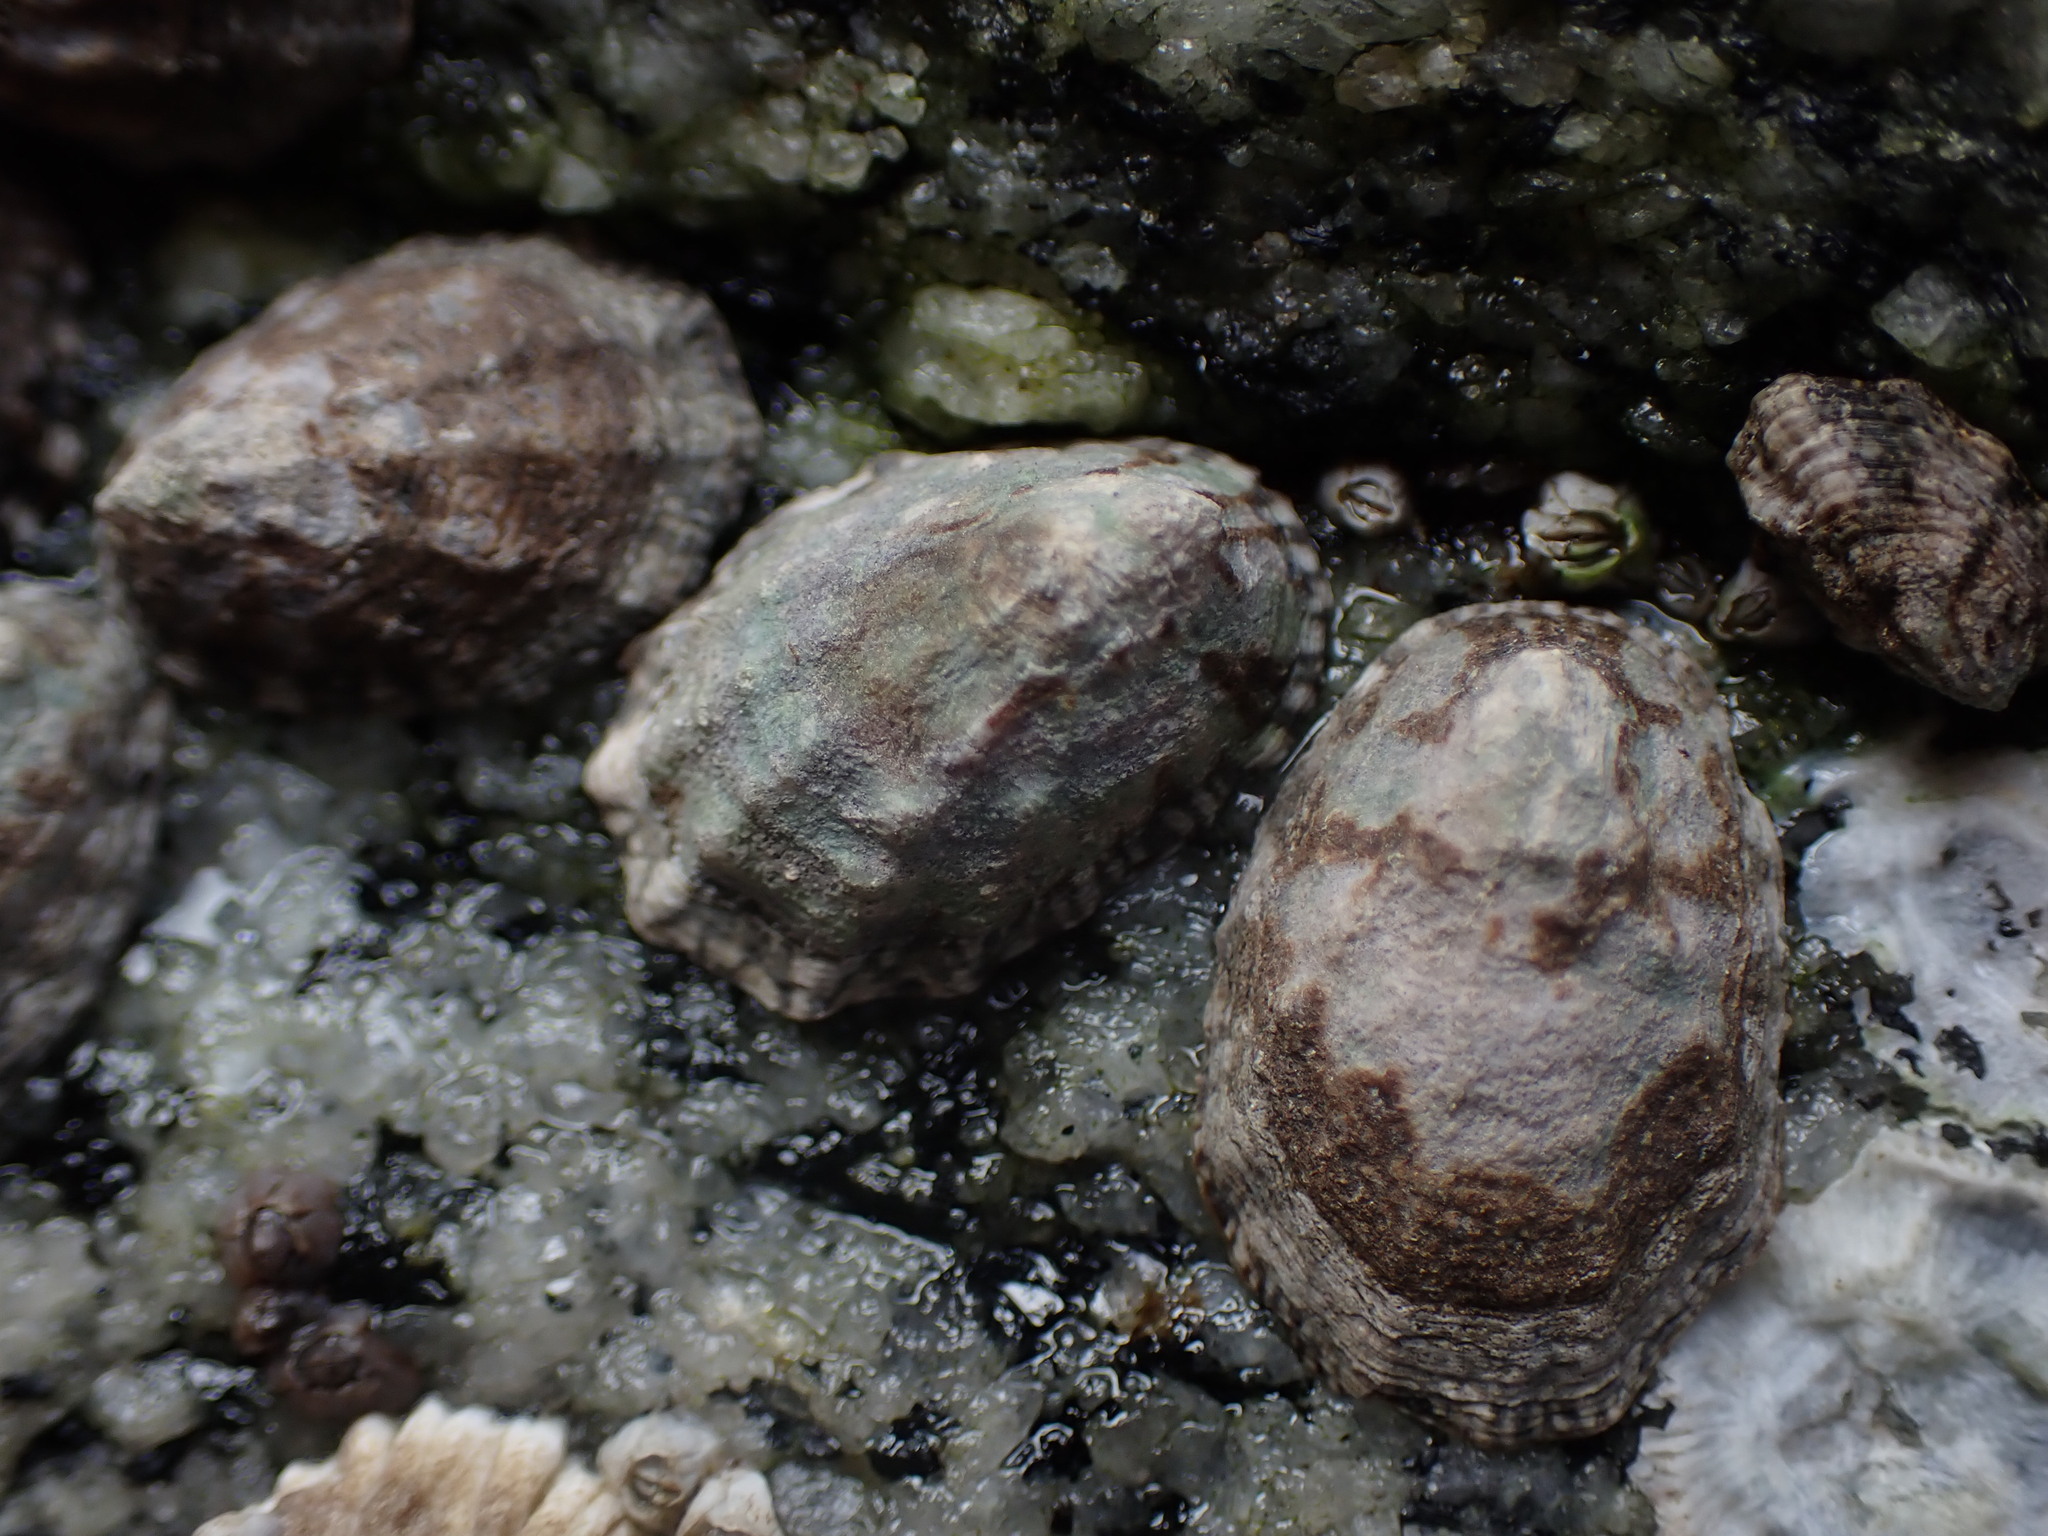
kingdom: Animalia
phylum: Mollusca
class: Gastropoda
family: Lottiidae
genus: Lottia
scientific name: Lottia digitalis
